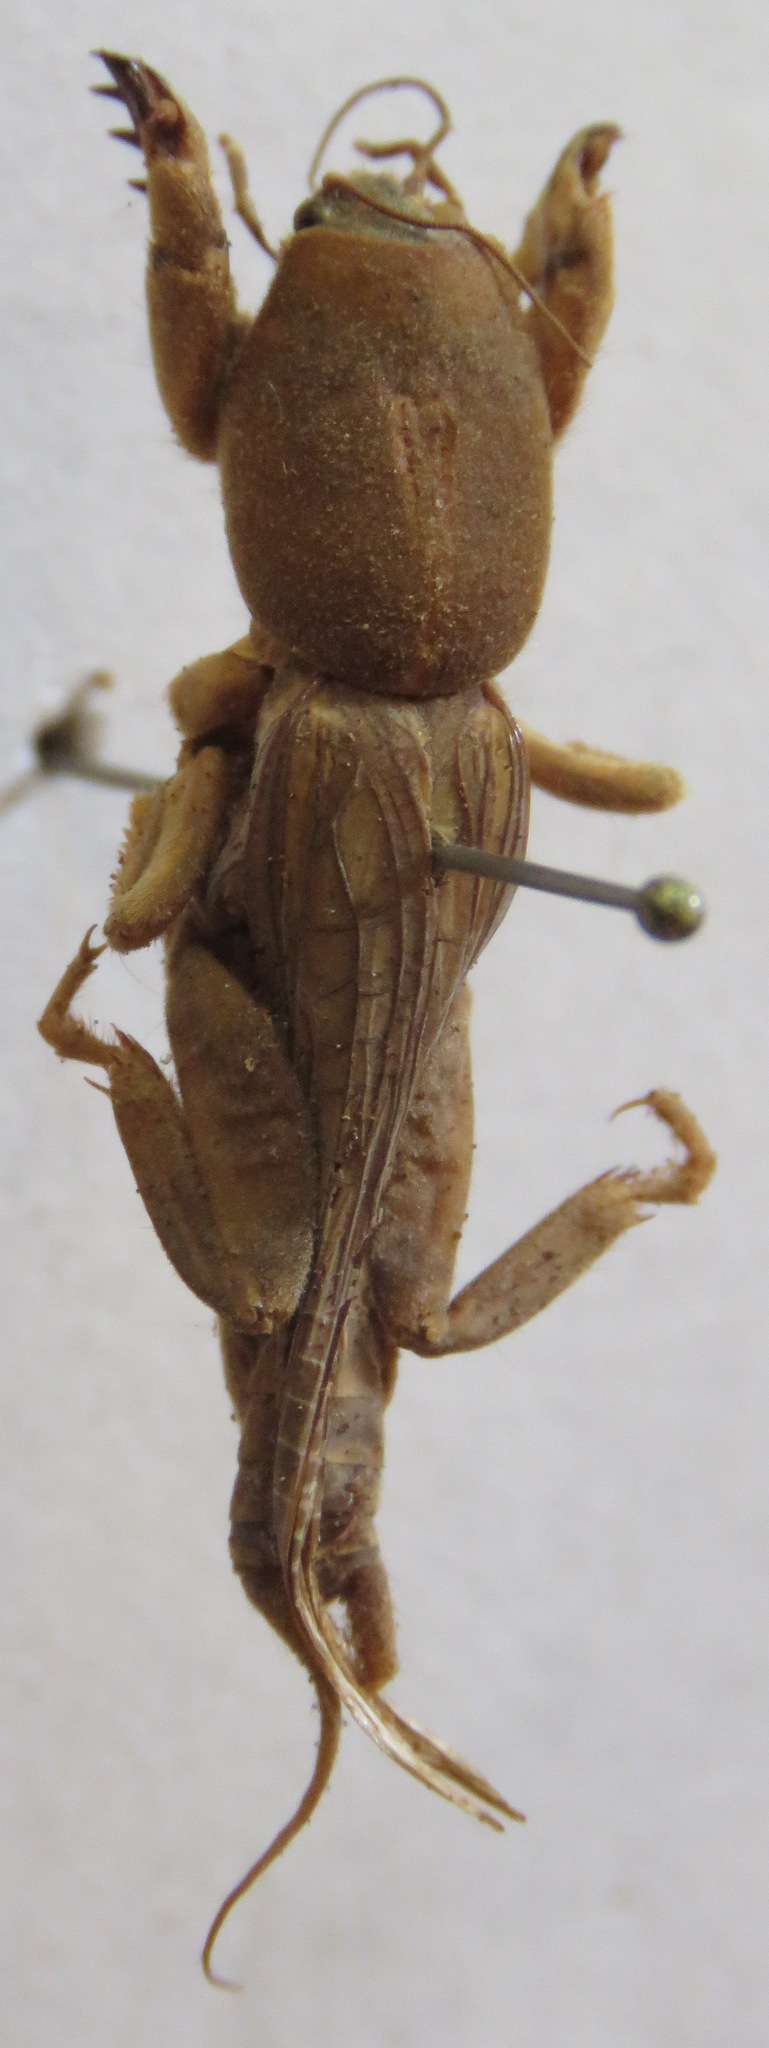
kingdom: Animalia
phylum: Arthropoda
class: Insecta
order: Orthoptera
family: Gryllotalpidae
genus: Neocurtilla
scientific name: Neocurtilla hexadactyla
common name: Northern mole cricket
